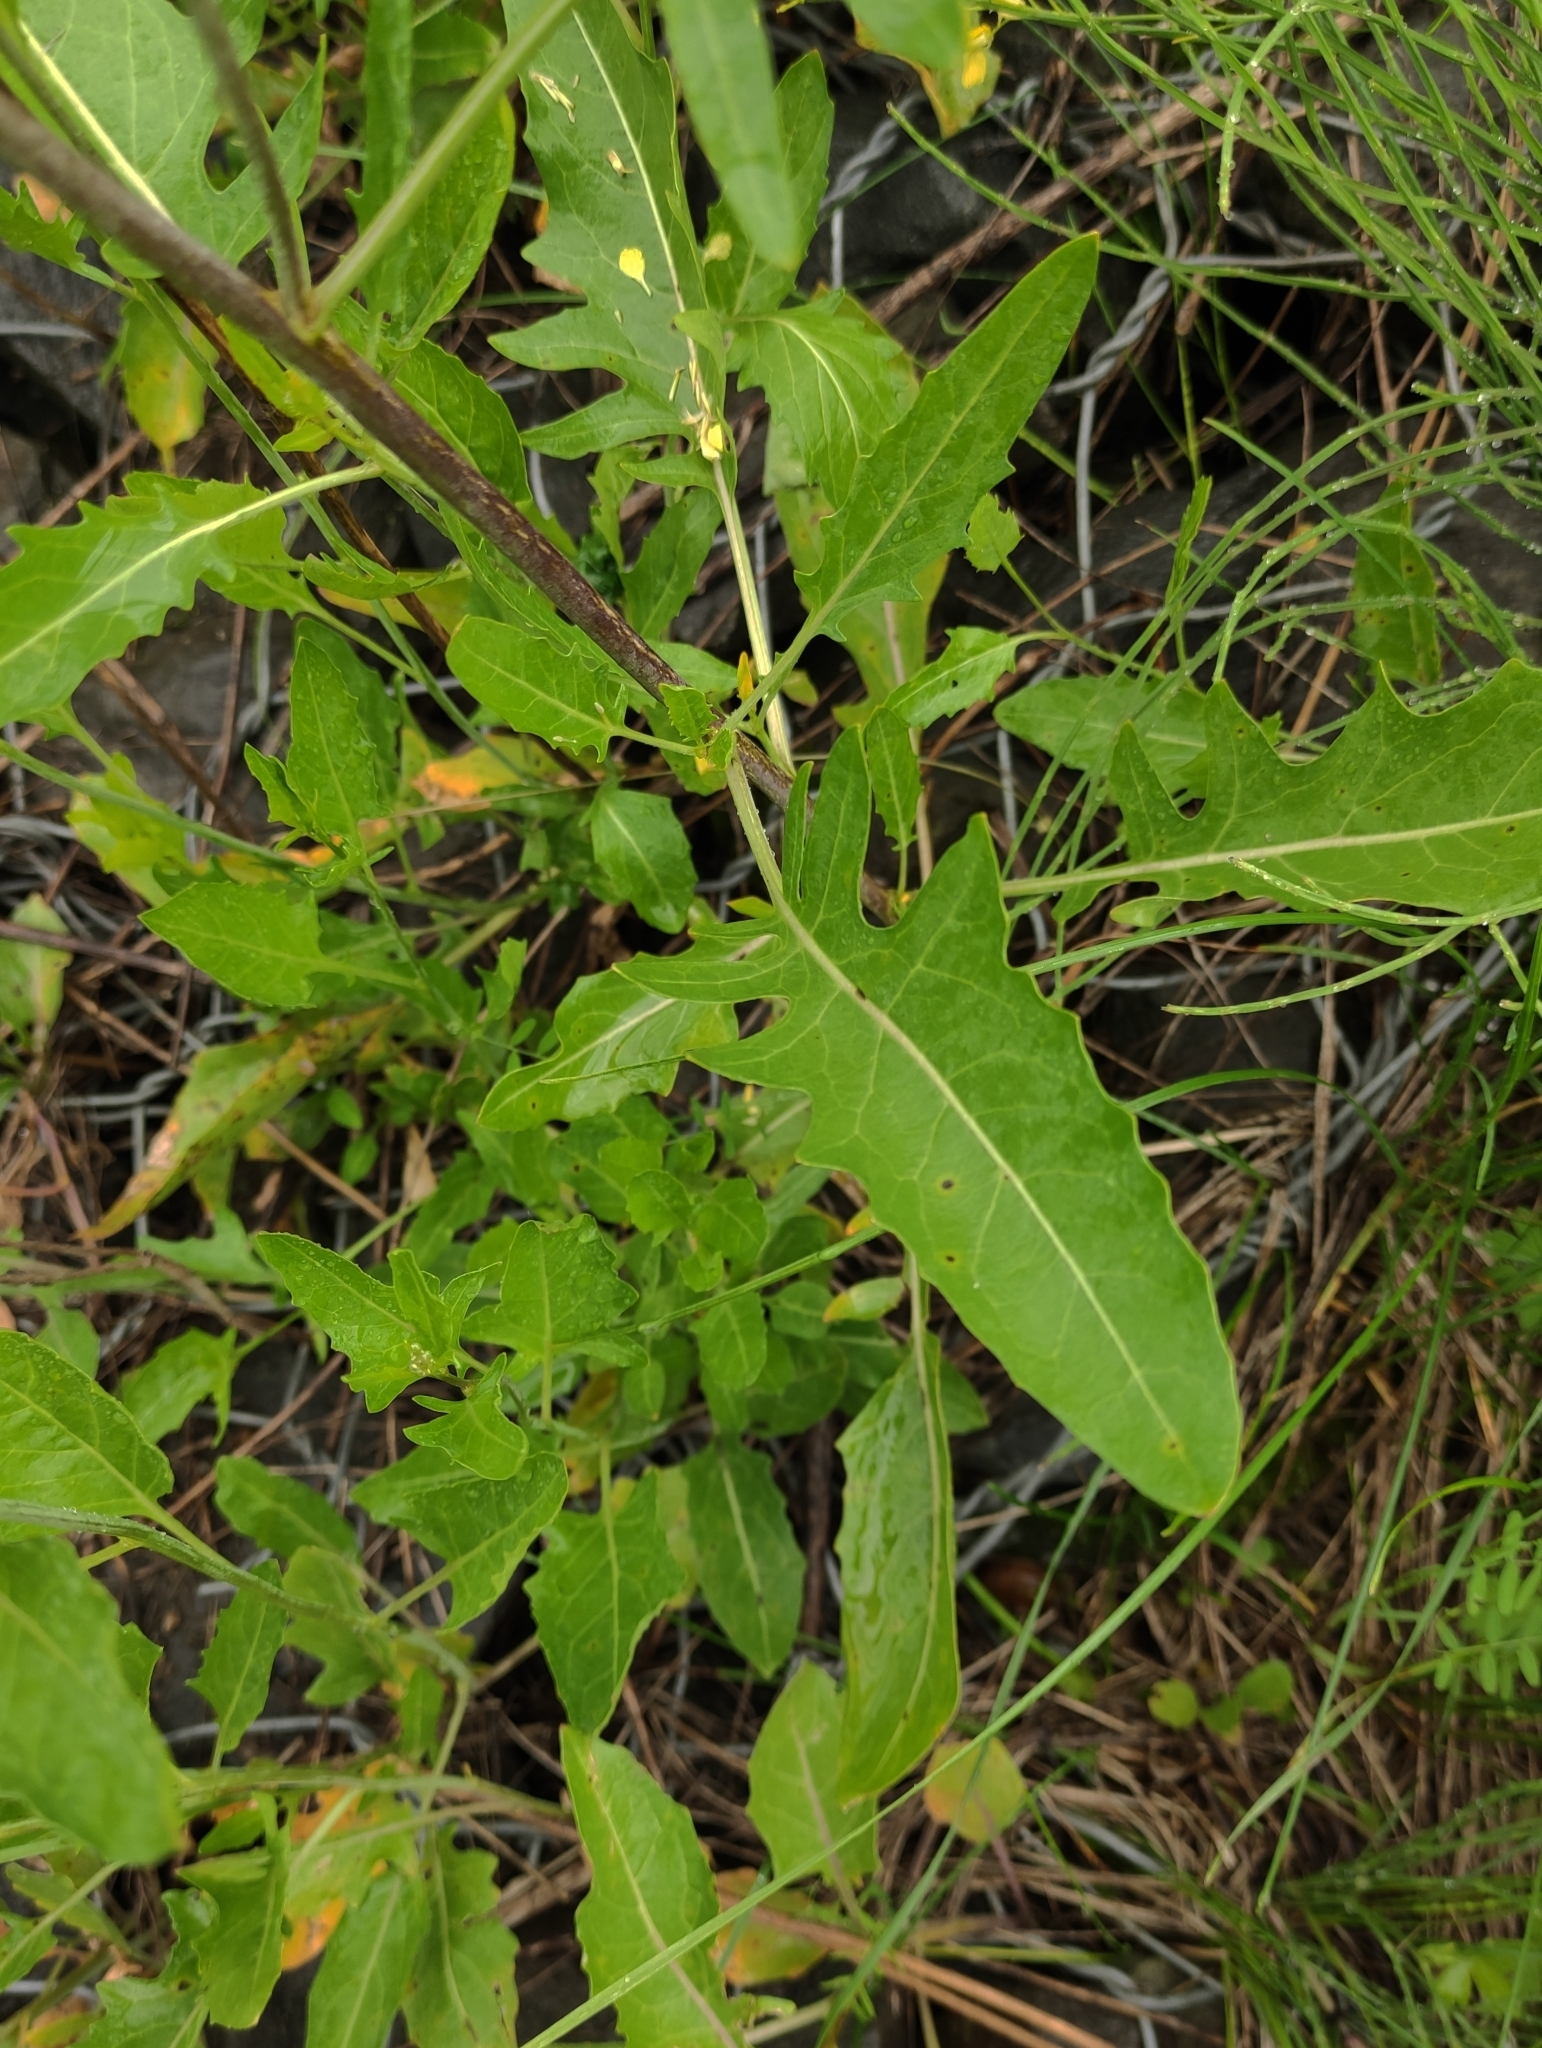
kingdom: Plantae
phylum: Tracheophyta
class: Magnoliopsida
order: Brassicales
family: Brassicaceae
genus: Sisymbrium
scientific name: Sisymbrium volgense
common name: Russian mustard
